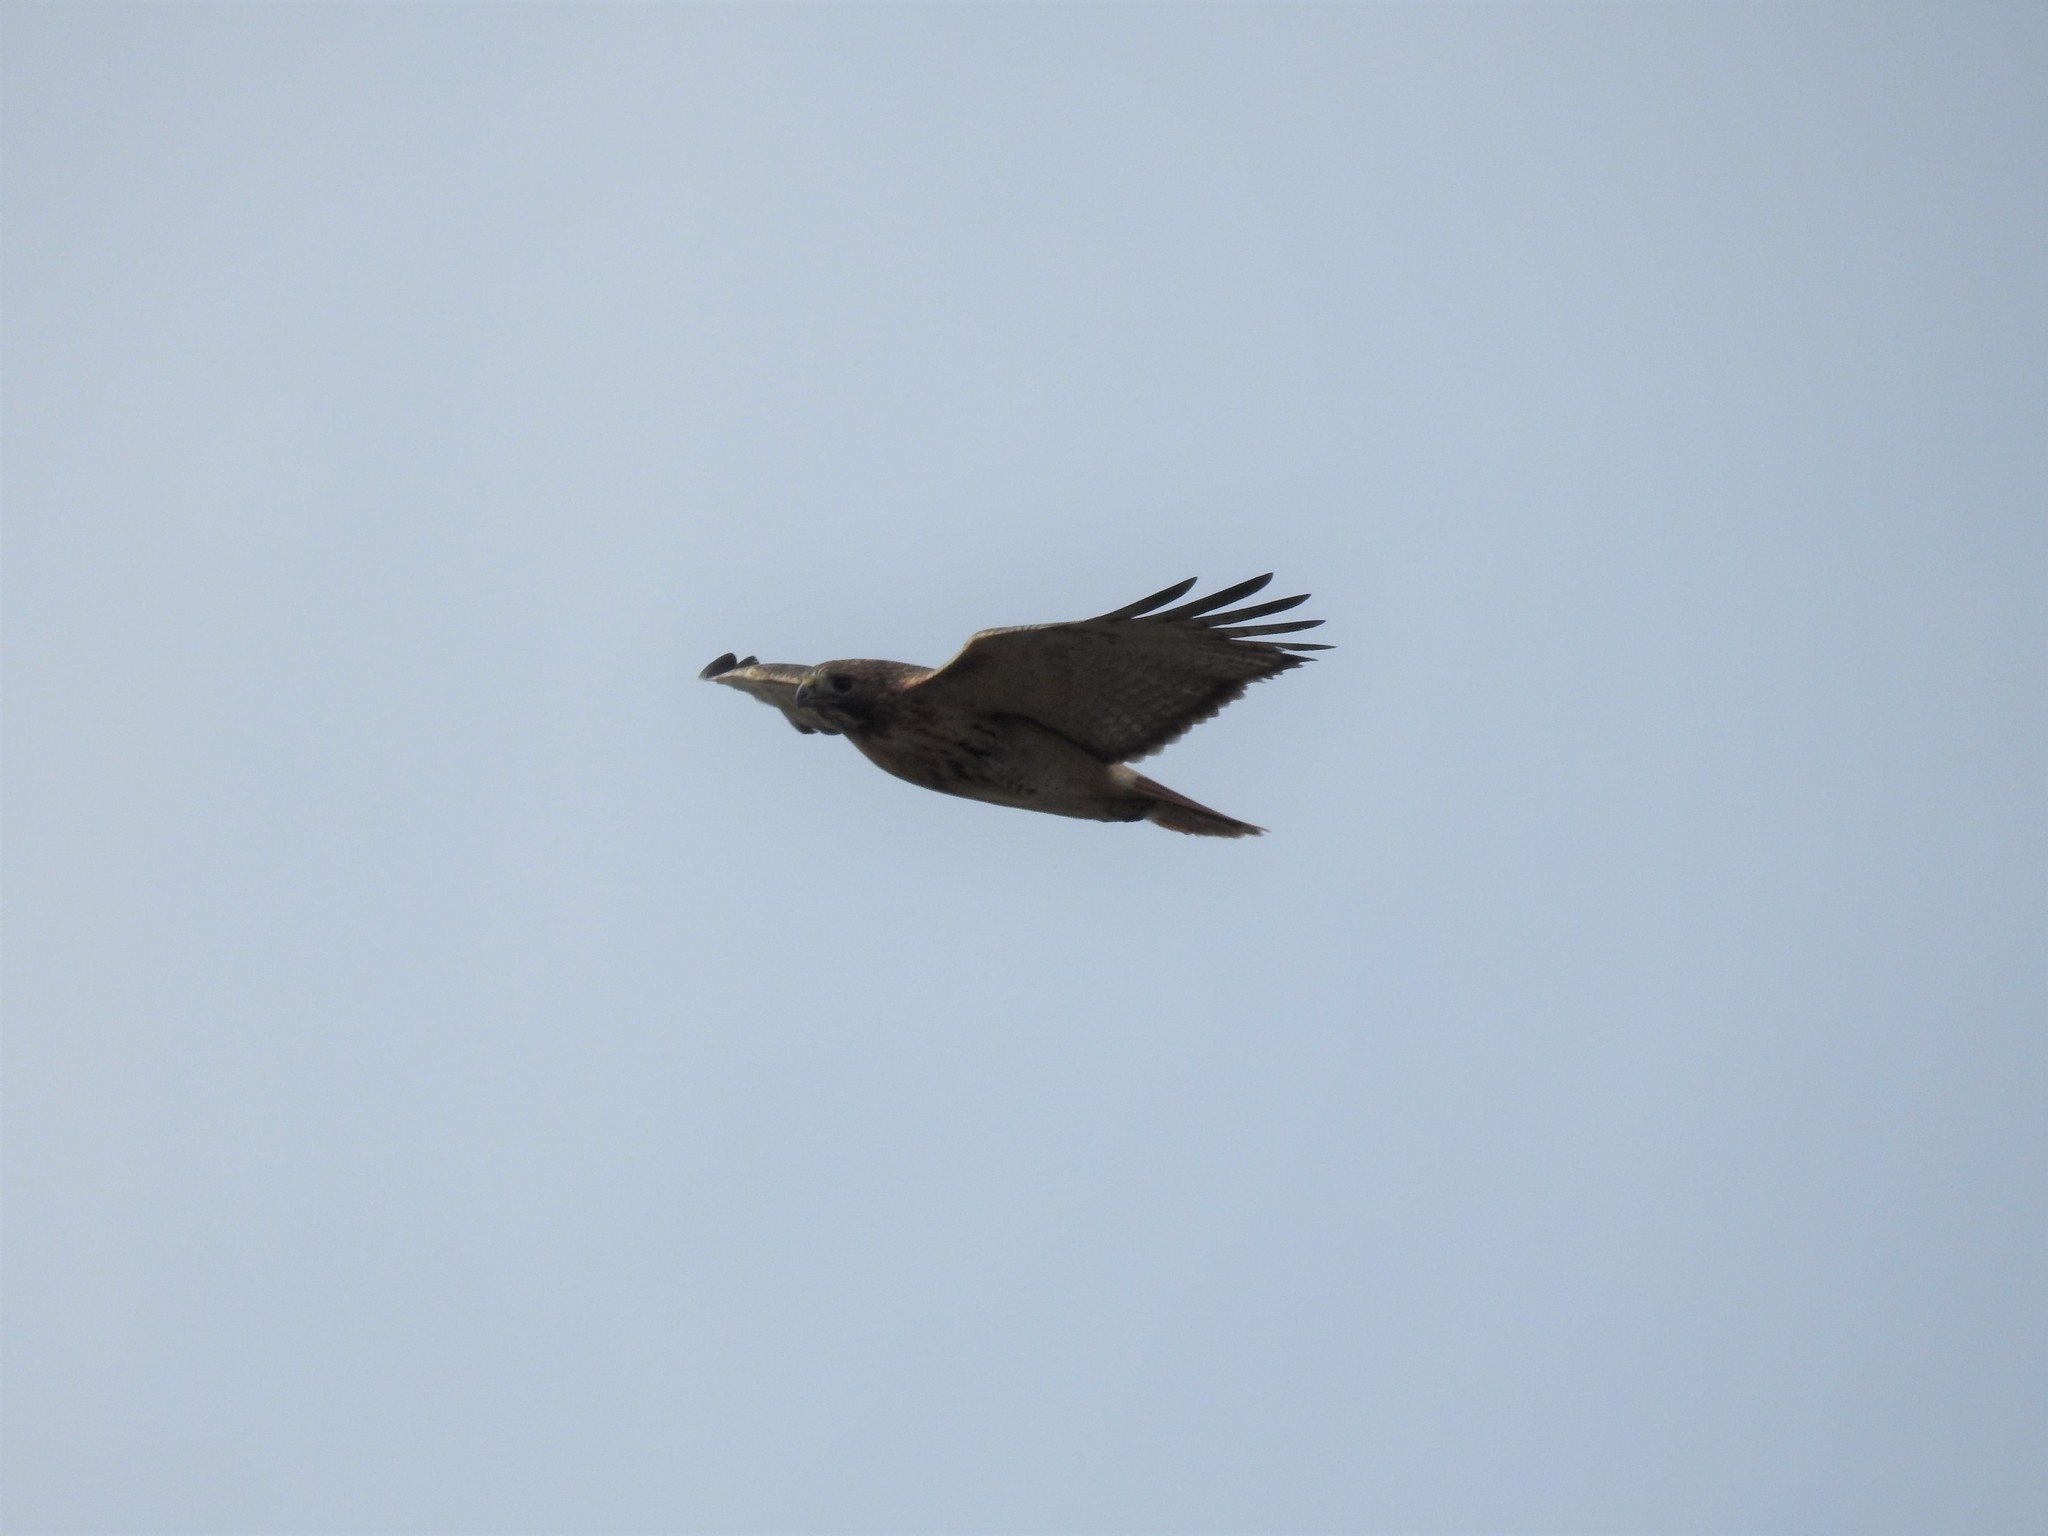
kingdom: Animalia
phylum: Chordata
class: Aves
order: Accipitriformes
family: Accipitridae
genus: Buteo
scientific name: Buteo jamaicensis
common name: Red-tailed hawk
